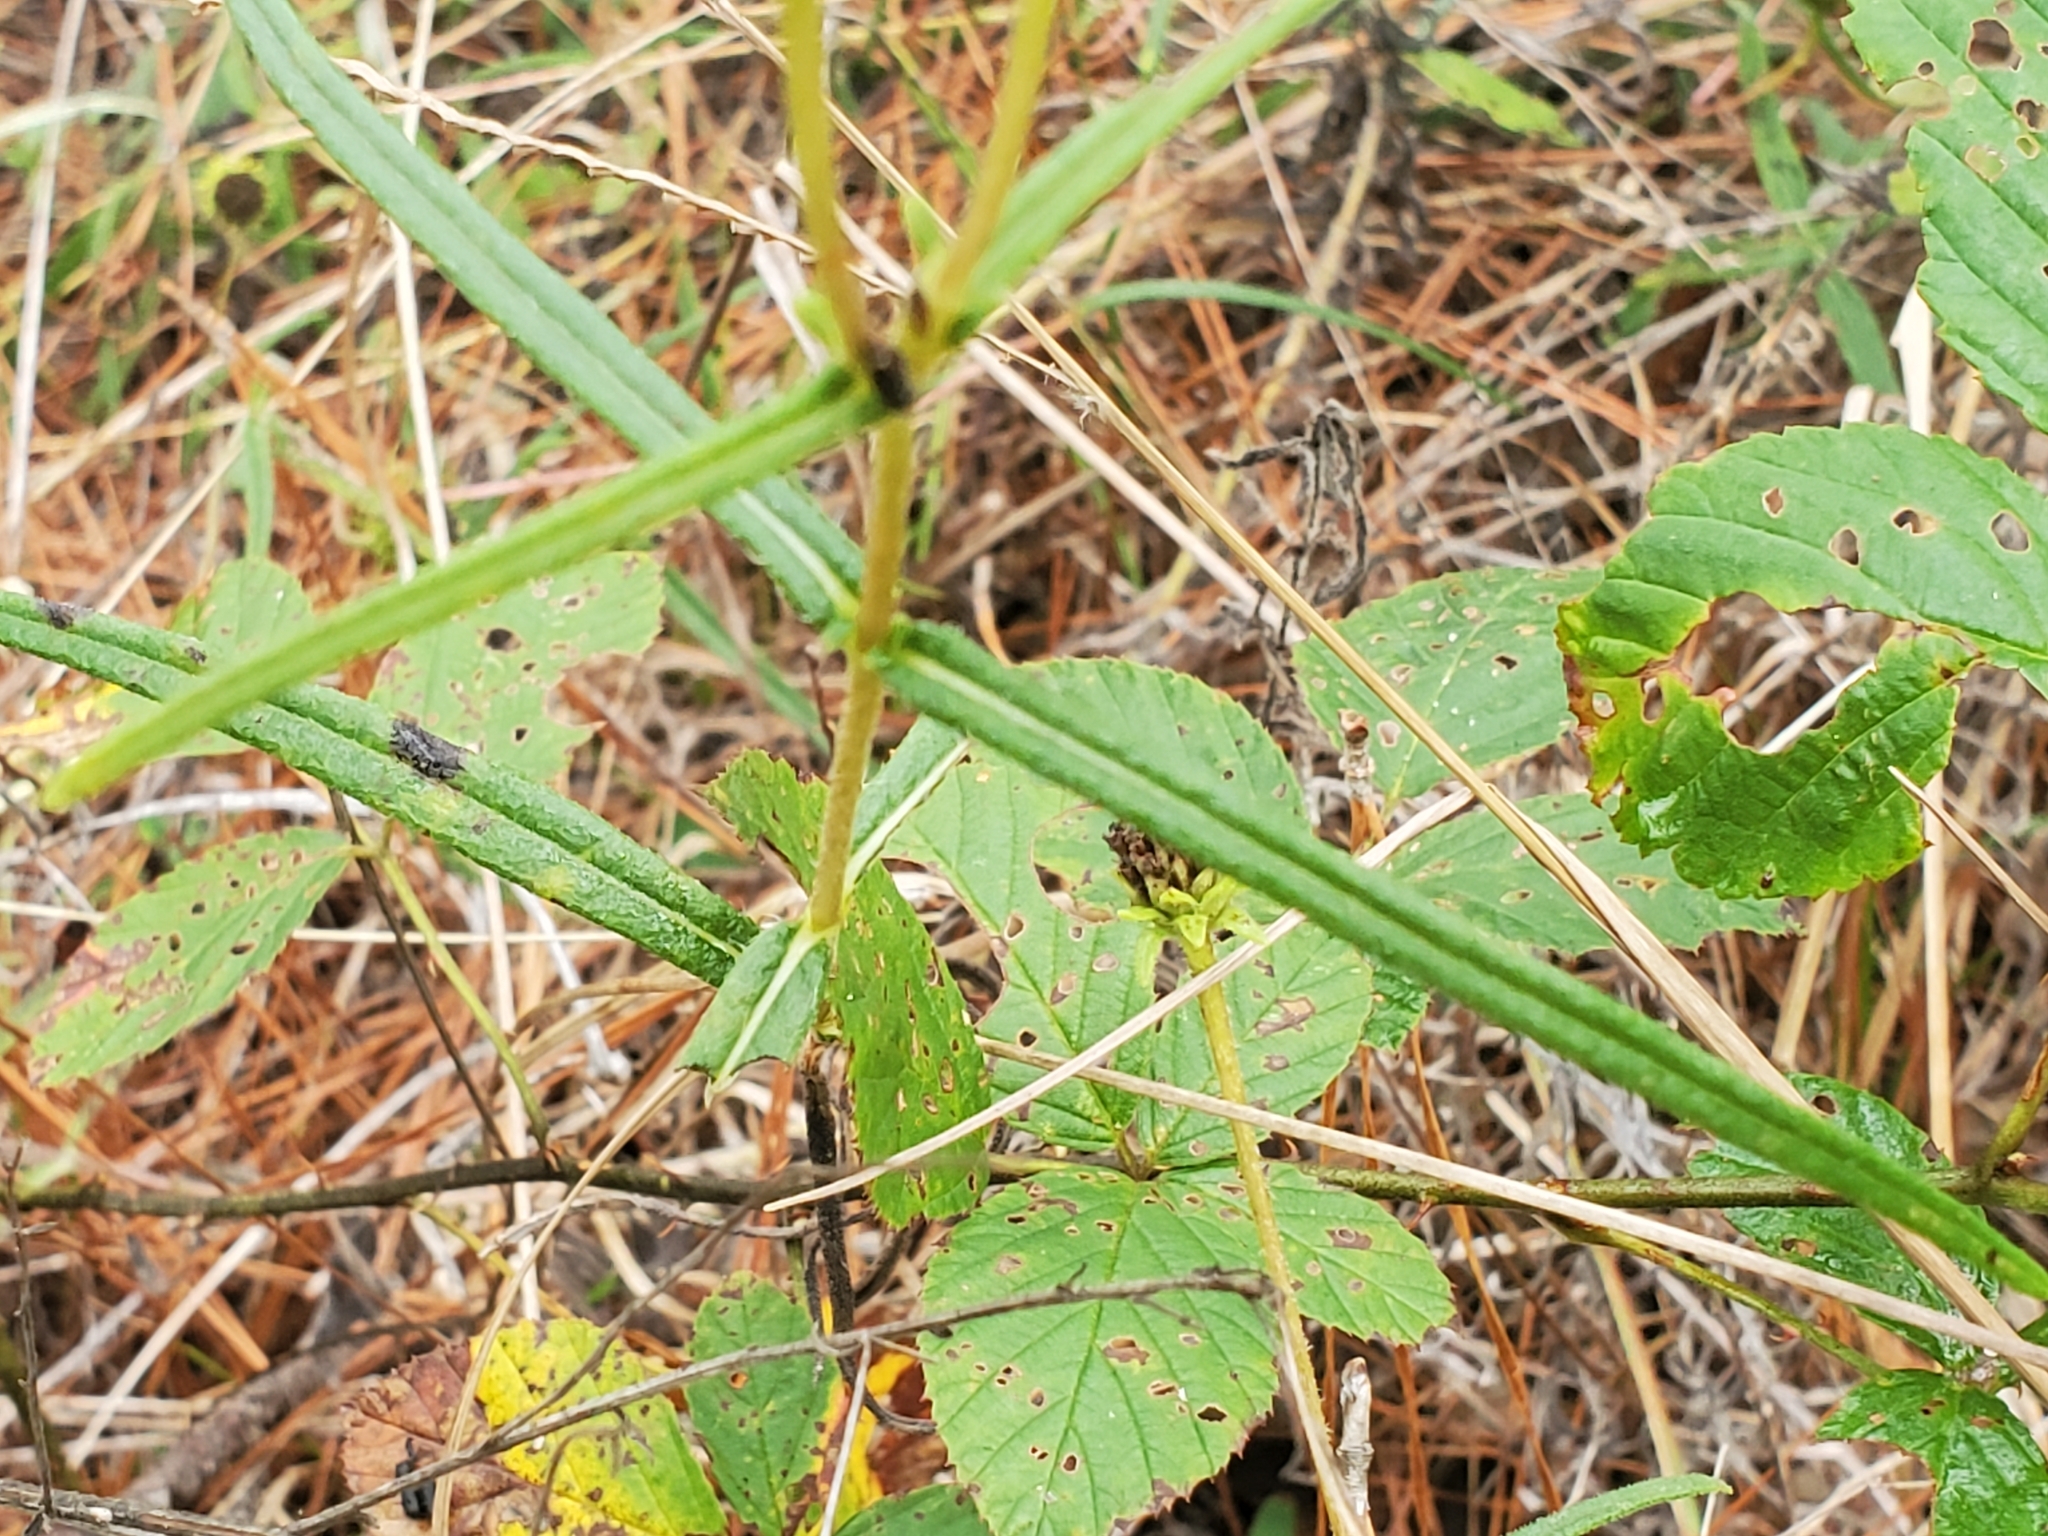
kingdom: Plantae
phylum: Tracheophyta
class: Magnoliopsida
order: Asterales
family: Asteraceae
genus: Helianthus
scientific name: Helianthus angustifolius
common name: Swamp sunflower
